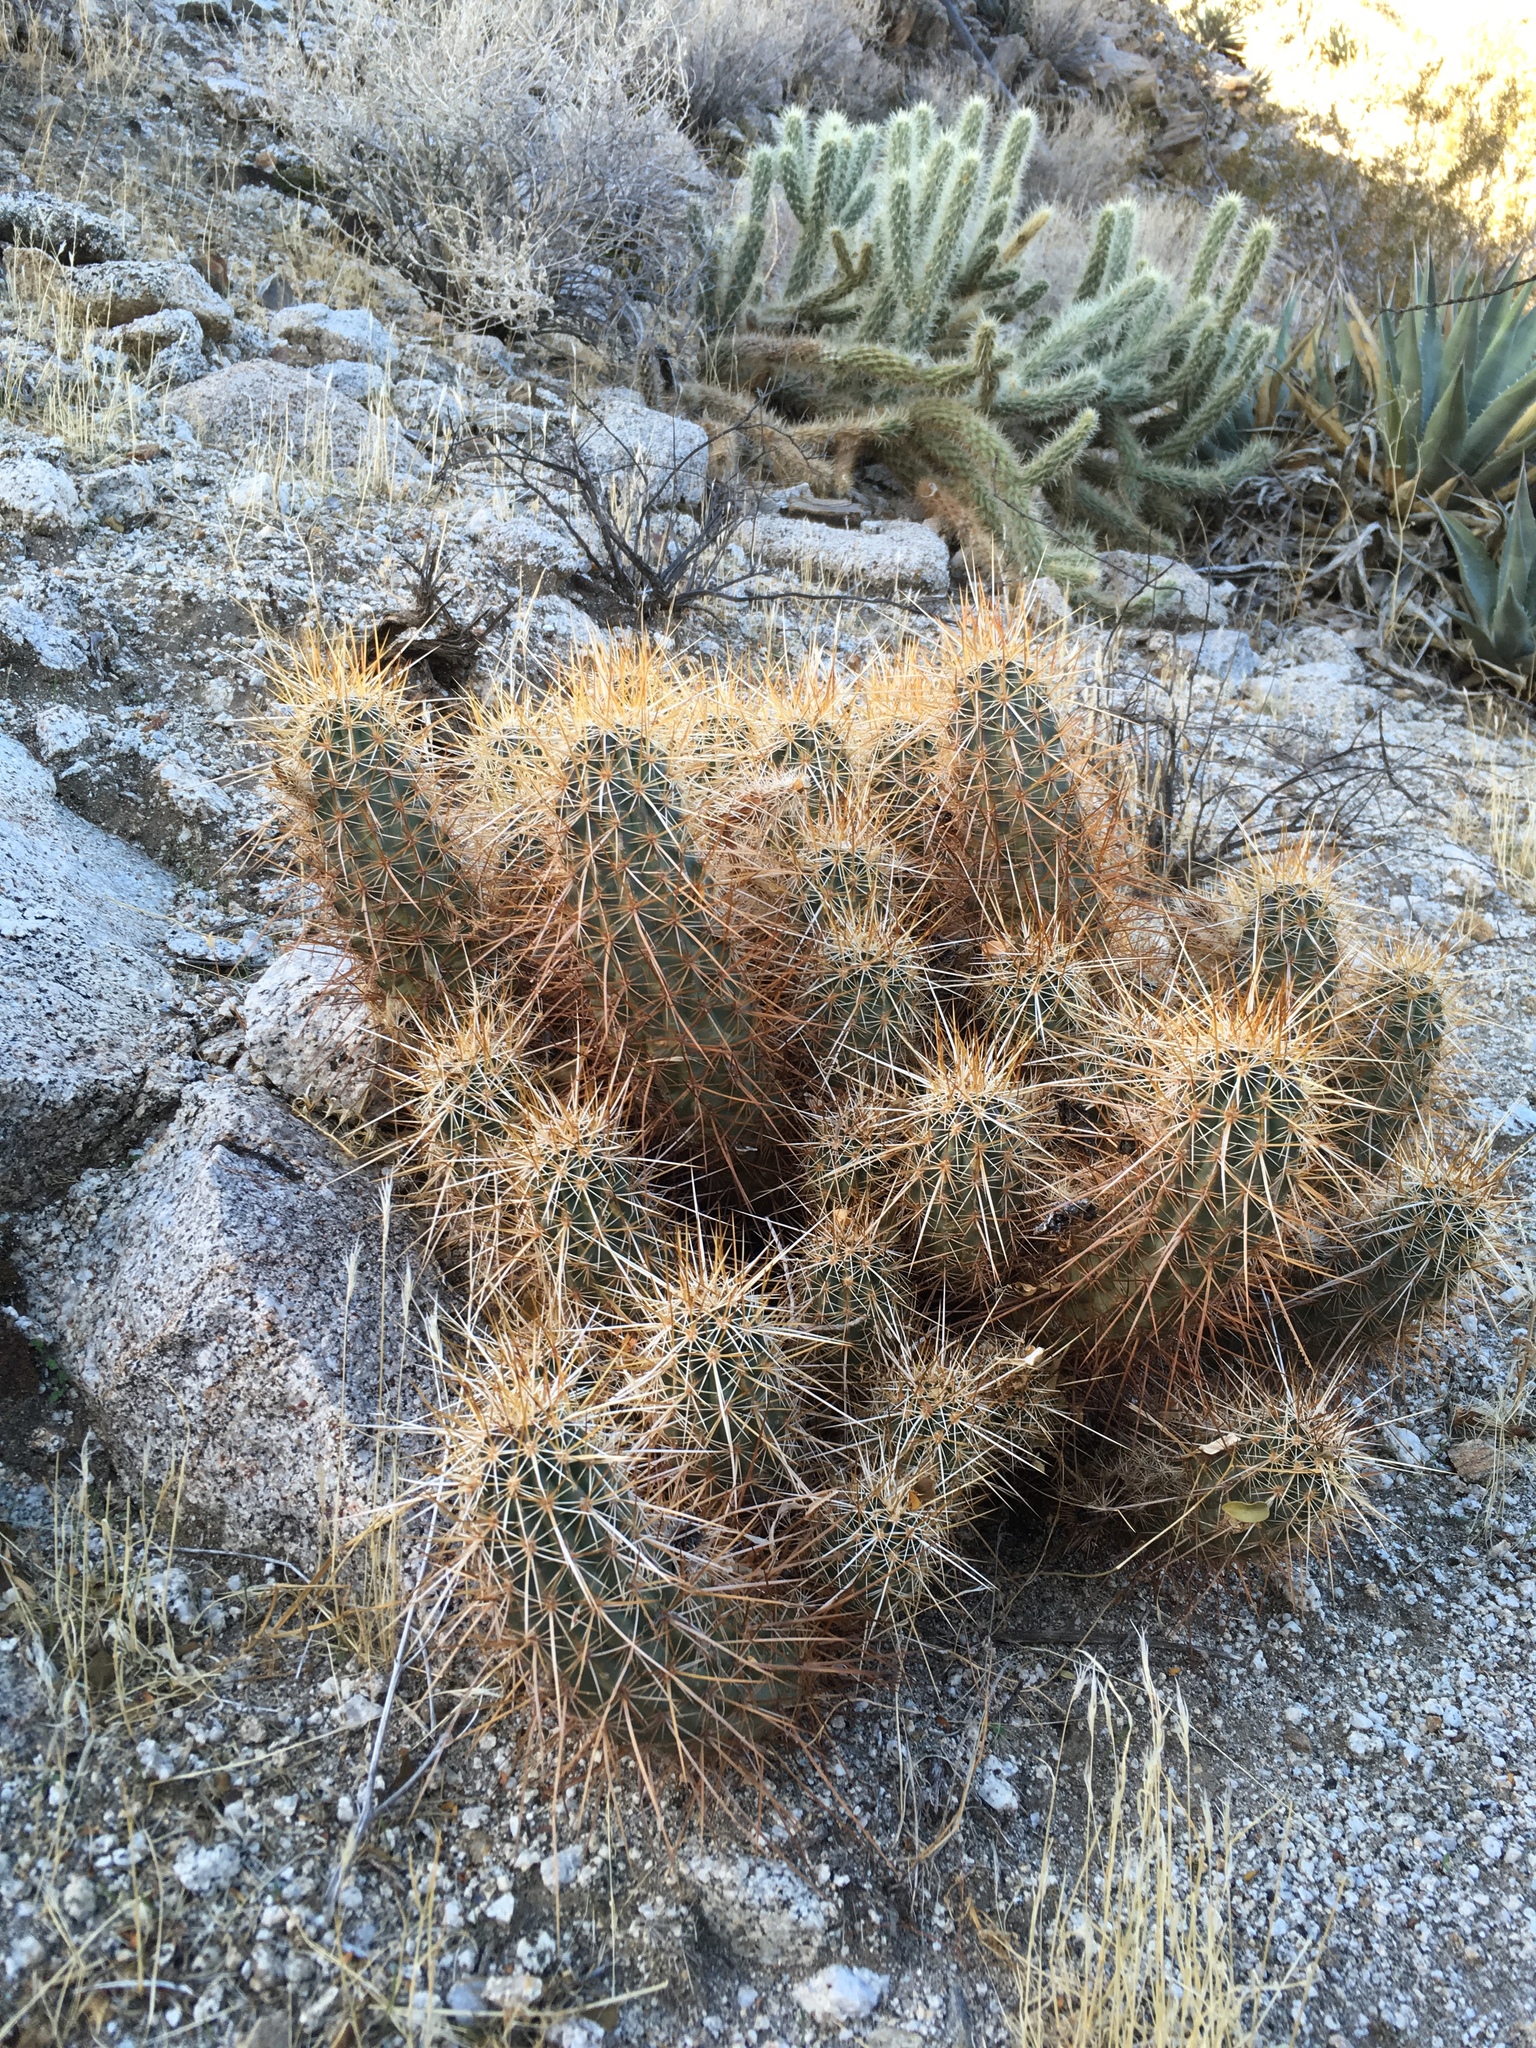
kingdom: Plantae
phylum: Tracheophyta
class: Magnoliopsida
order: Caryophyllales
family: Cactaceae
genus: Echinocereus
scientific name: Echinocereus engelmannii
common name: Engelmann's hedgehog cactus
